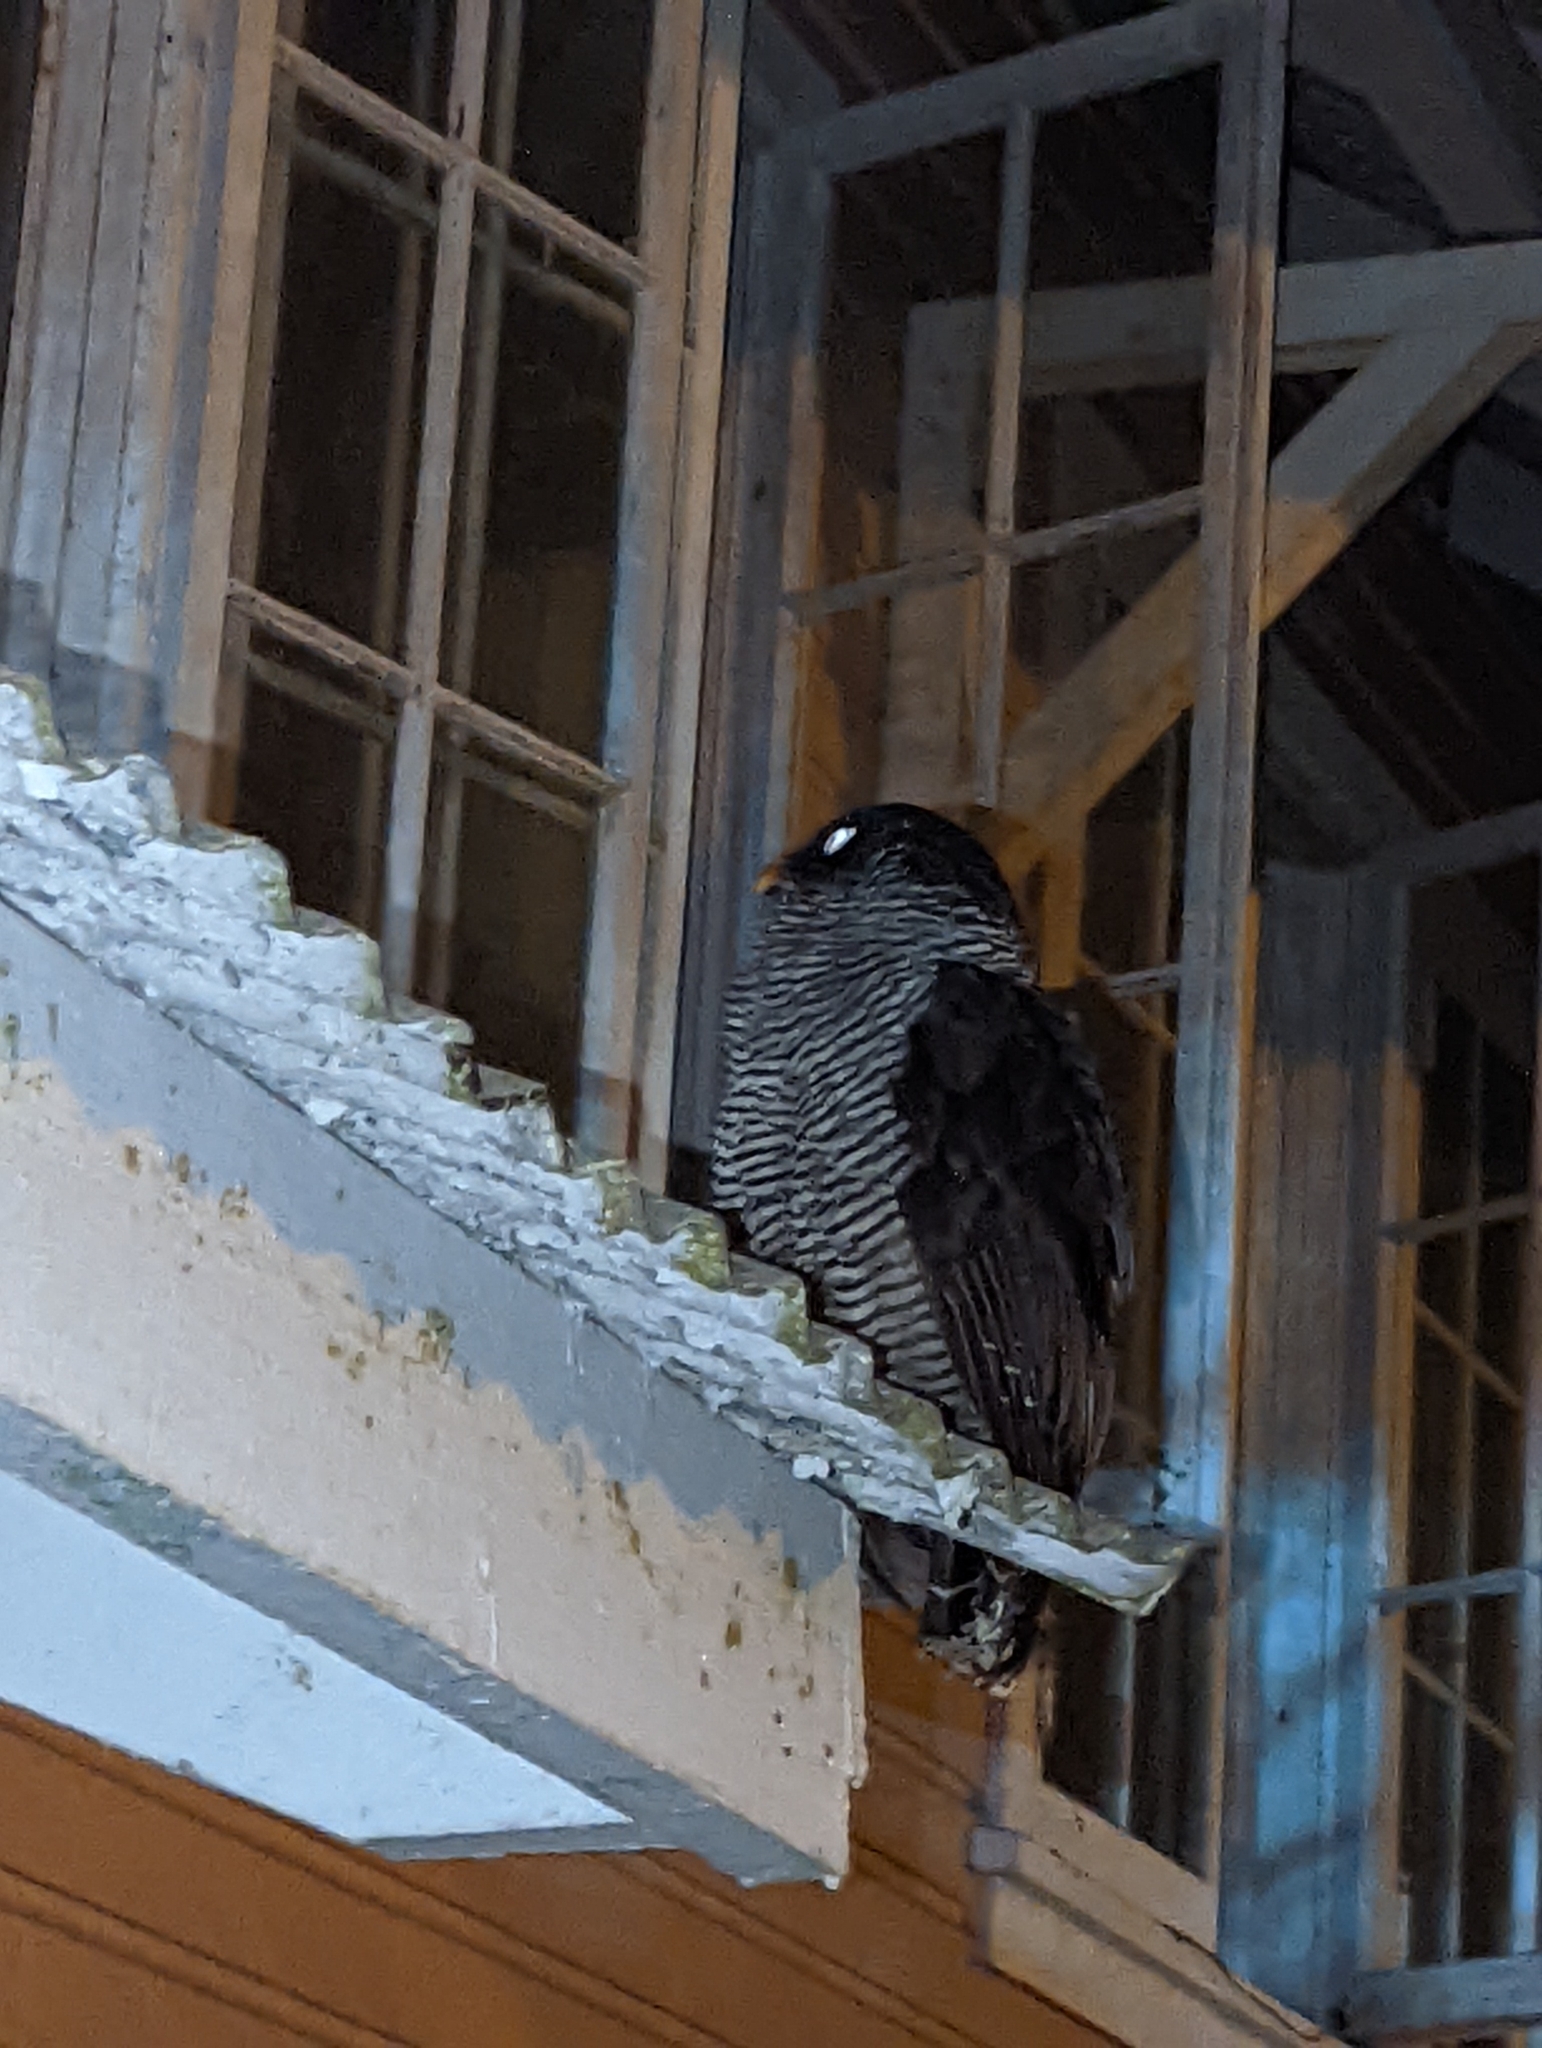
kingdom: Animalia
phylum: Chordata
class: Aves
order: Strigiformes
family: Strigidae
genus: Strix
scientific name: Strix nigrolineata
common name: Black-and-white owl
